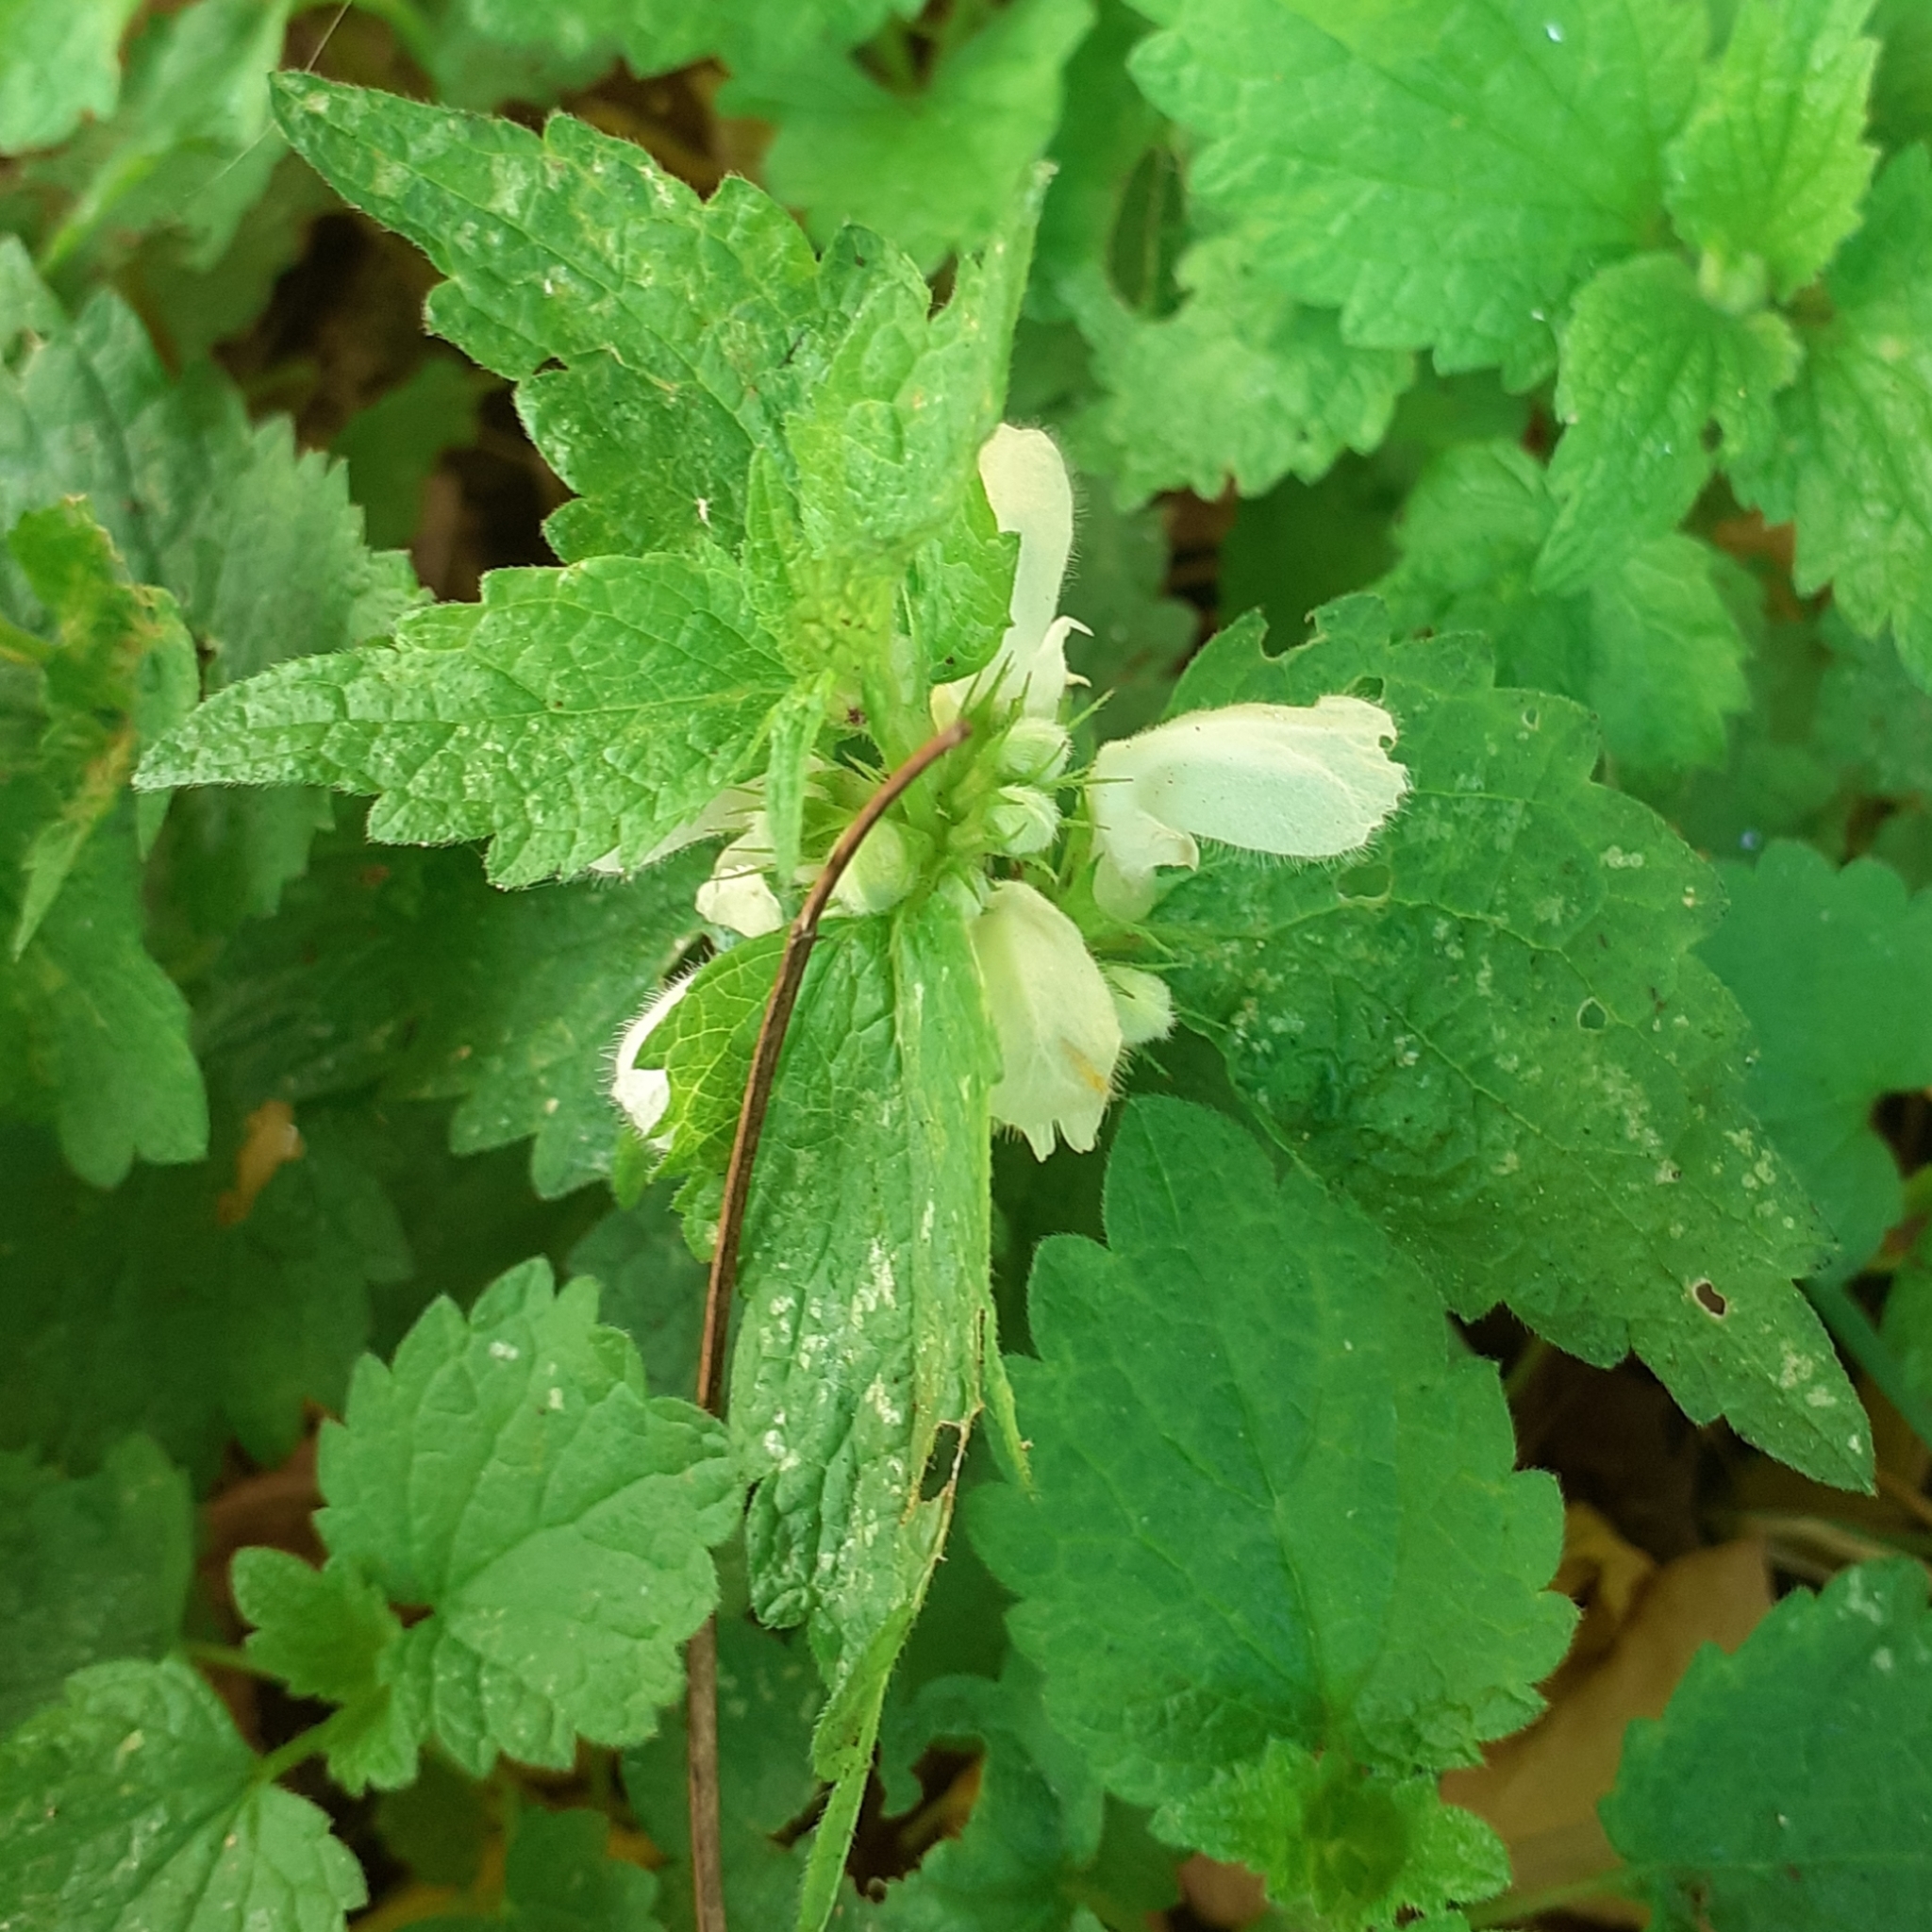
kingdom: Plantae
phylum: Tracheophyta
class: Magnoliopsida
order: Lamiales
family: Lamiaceae
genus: Lamium
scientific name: Lamium album
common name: White dead-nettle
